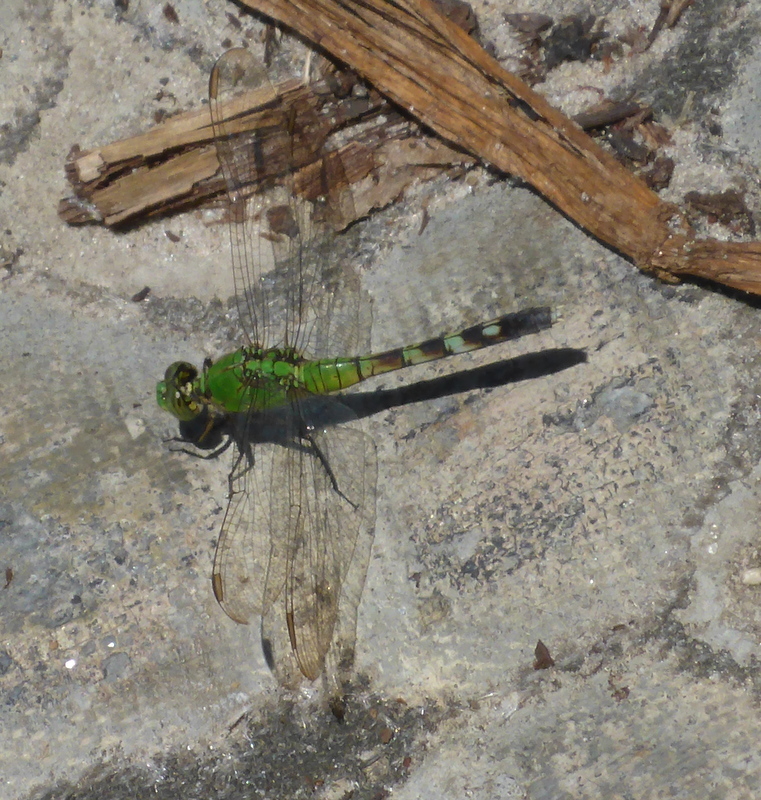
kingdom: Animalia
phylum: Arthropoda
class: Insecta
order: Odonata
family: Libellulidae
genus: Erythemis
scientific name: Erythemis simplicicollis
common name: Eastern pondhawk
